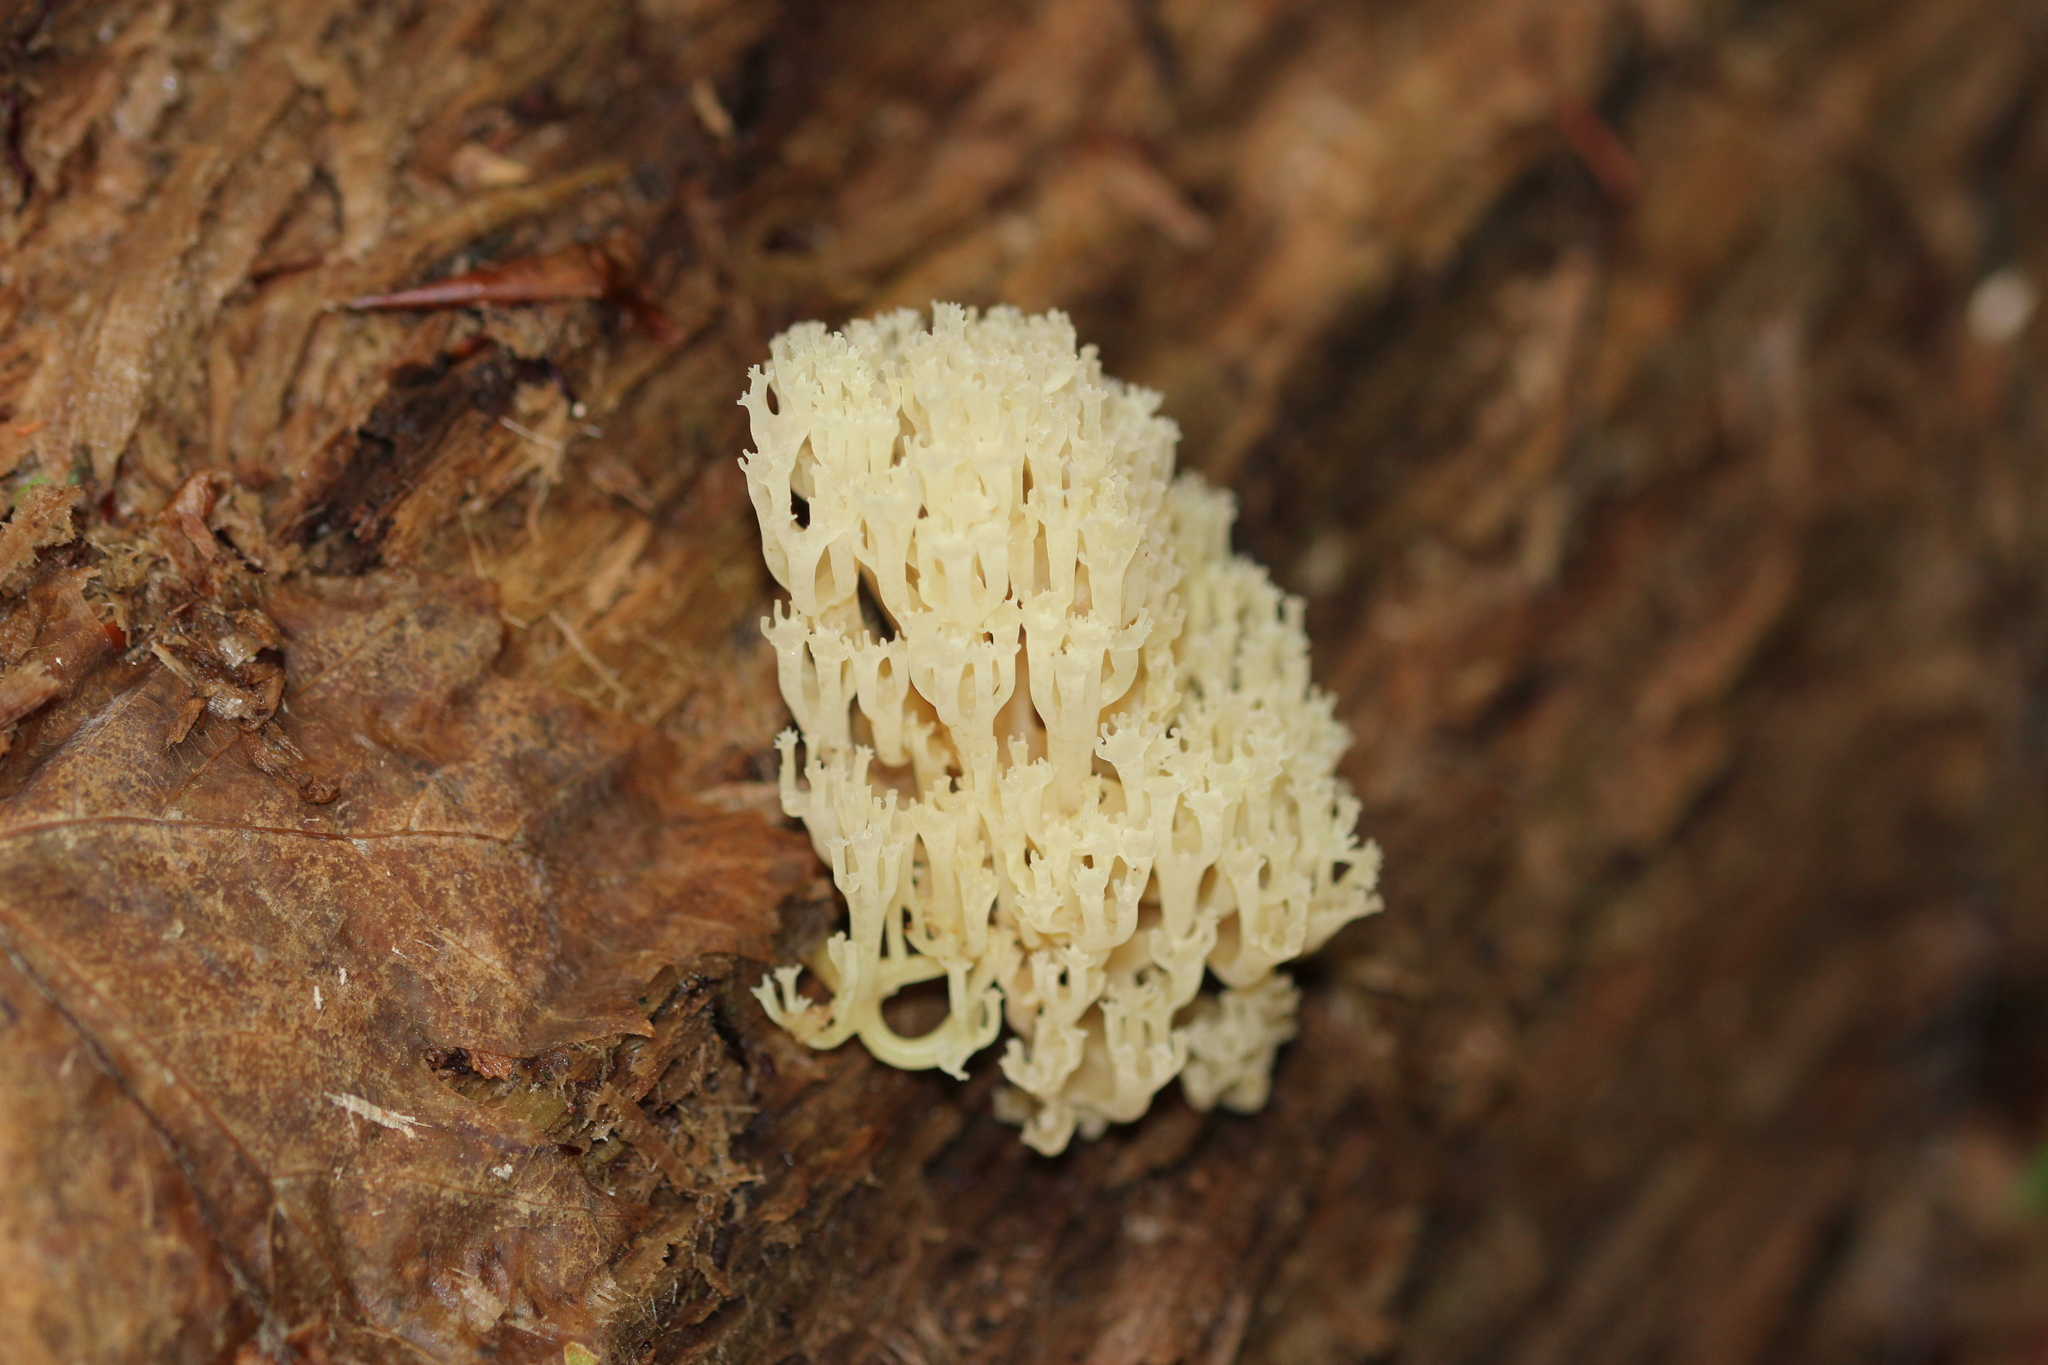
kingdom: Fungi
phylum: Basidiomycota
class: Agaricomycetes
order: Russulales
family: Auriscalpiaceae
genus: Artomyces
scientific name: Artomyces pyxidatus
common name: Crown-tipped coral fungus
